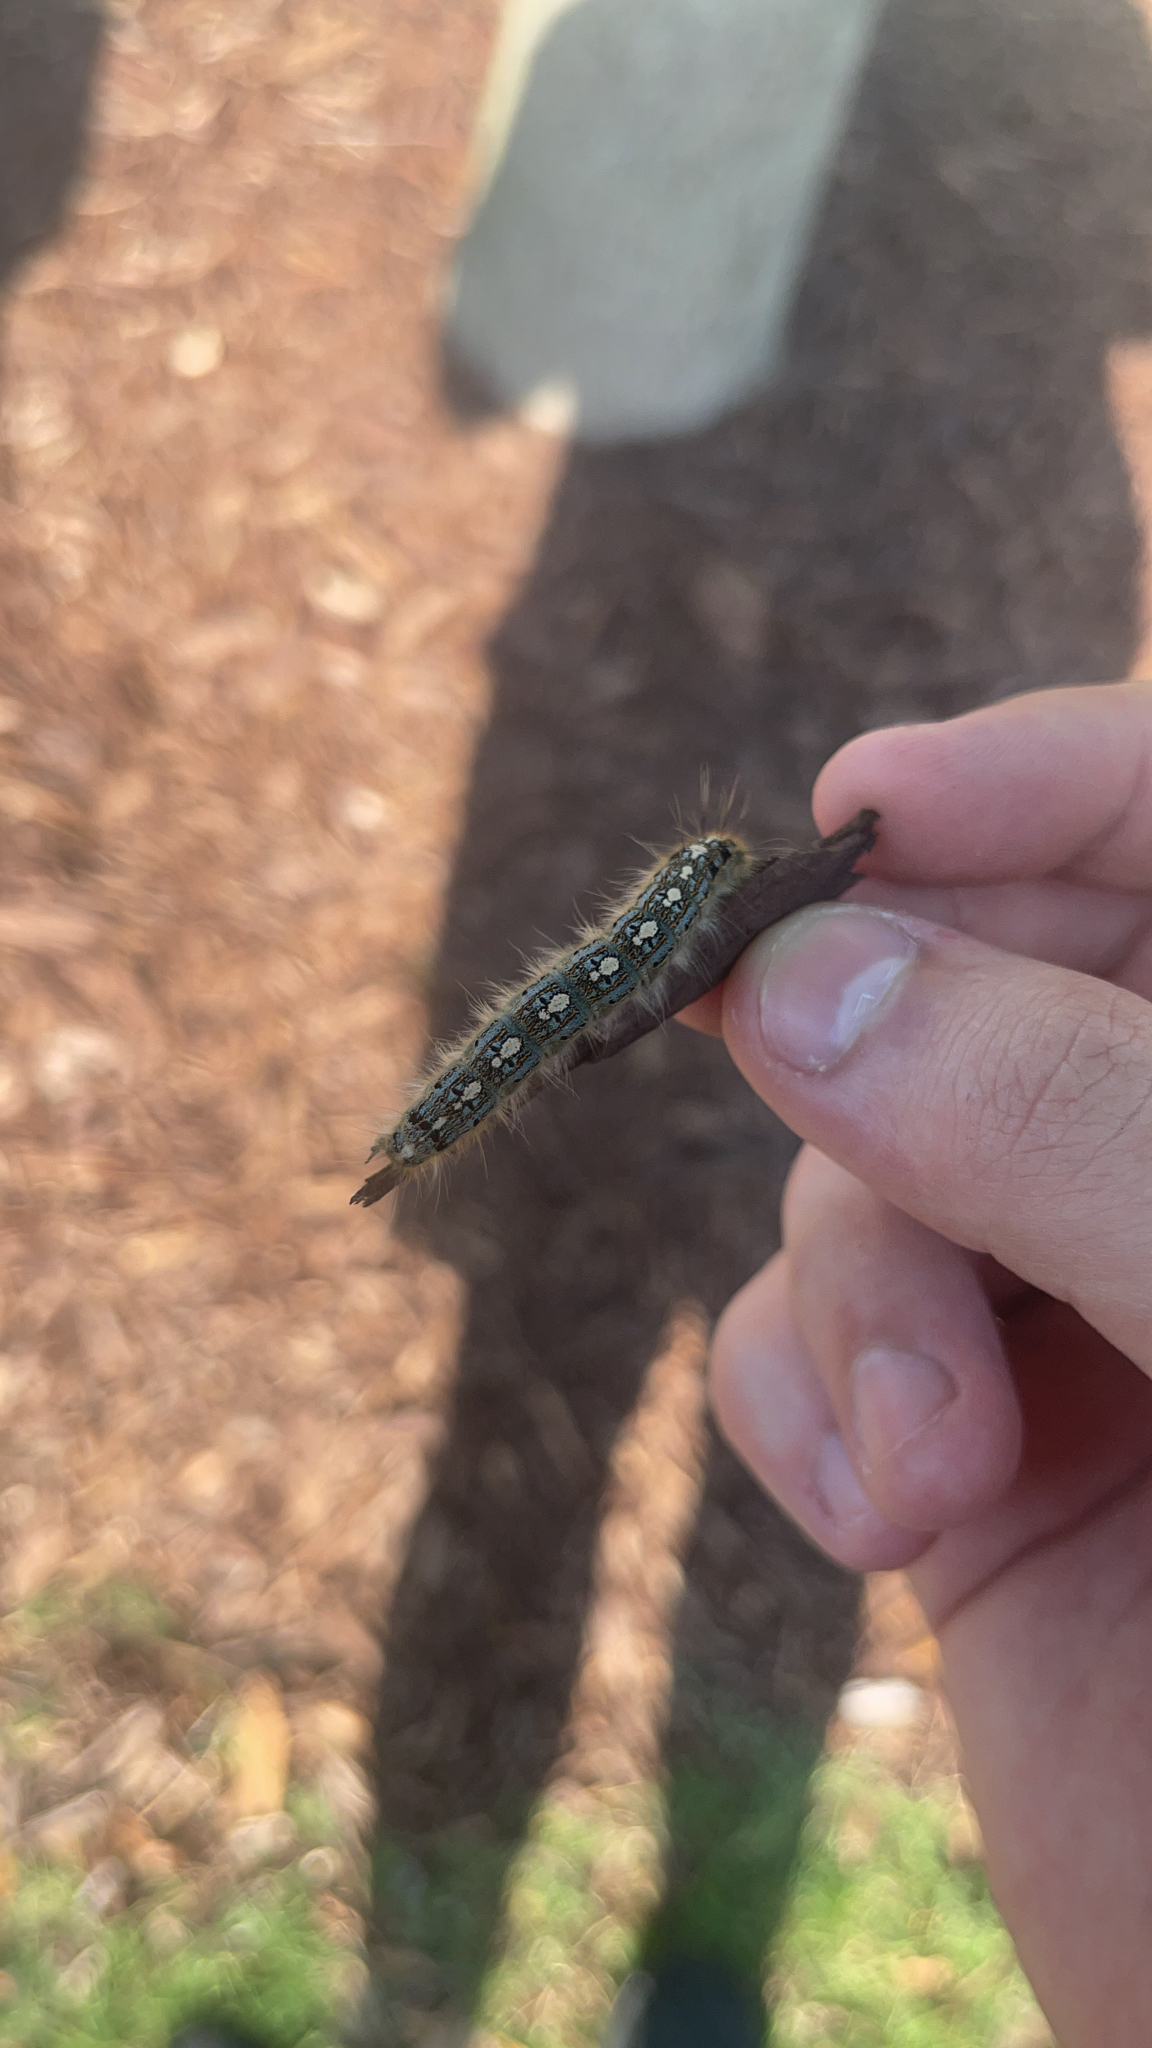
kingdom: Animalia
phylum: Arthropoda
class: Insecta
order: Lepidoptera
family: Lasiocampidae
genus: Malacosoma
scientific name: Malacosoma disstria
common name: Forest tent caterpillar
